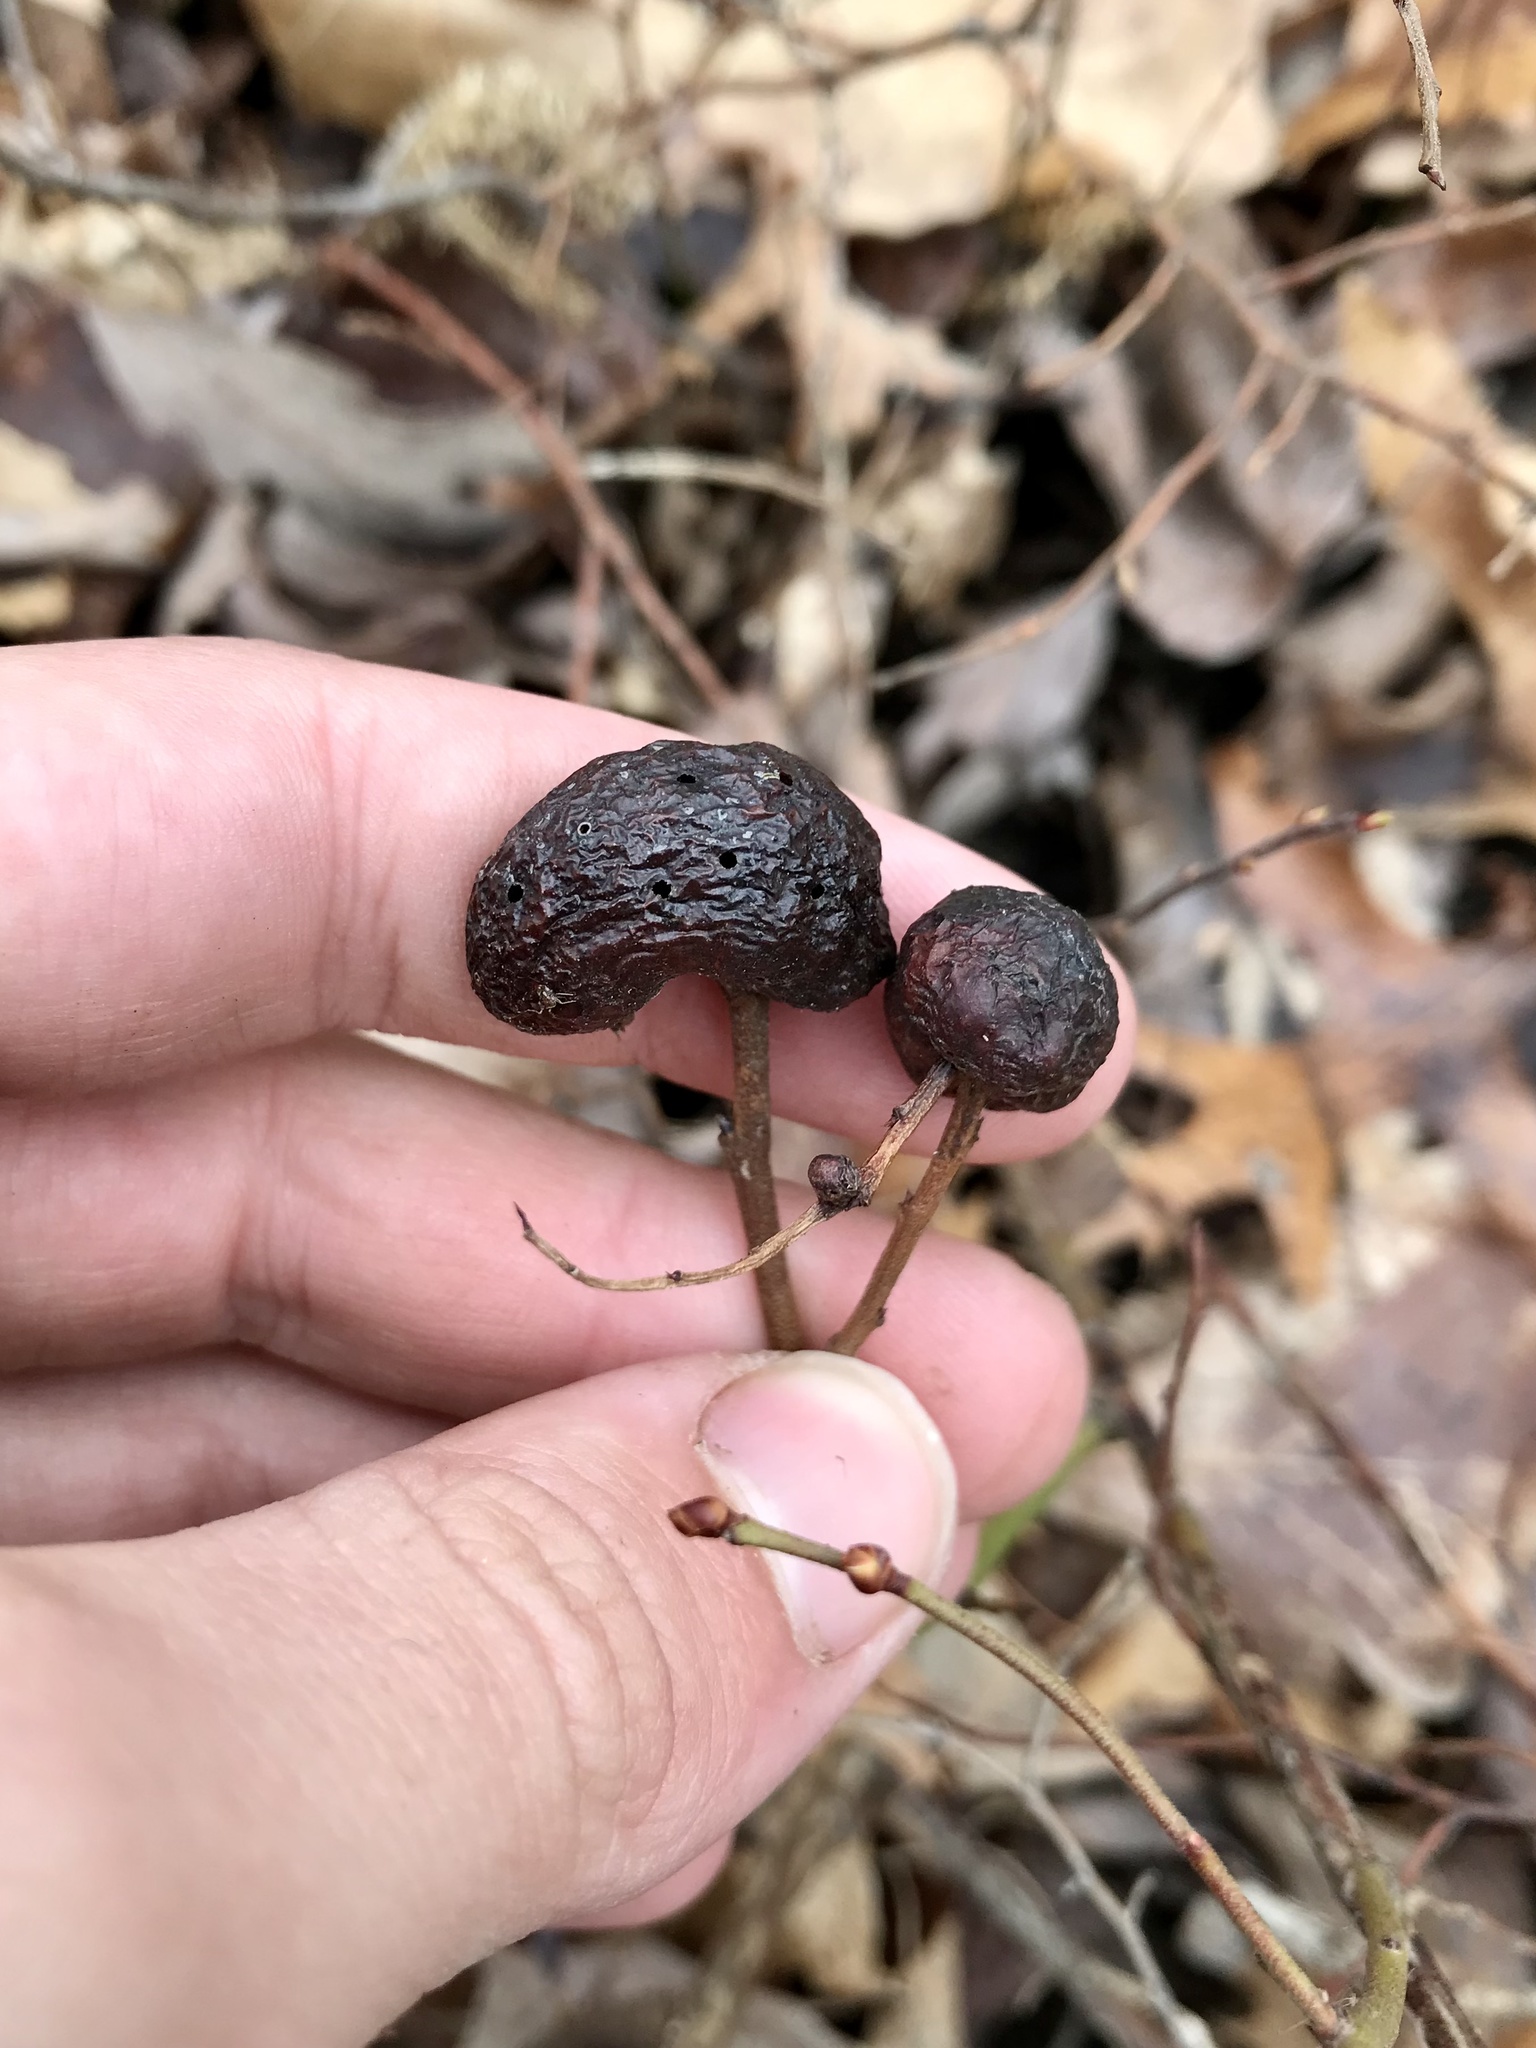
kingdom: Animalia
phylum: Arthropoda
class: Insecta
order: Hymenoptera
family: Pteromalidae
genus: Hemadas
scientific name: Hemadas nubilipennis
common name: Blueberry stem gall wasp
